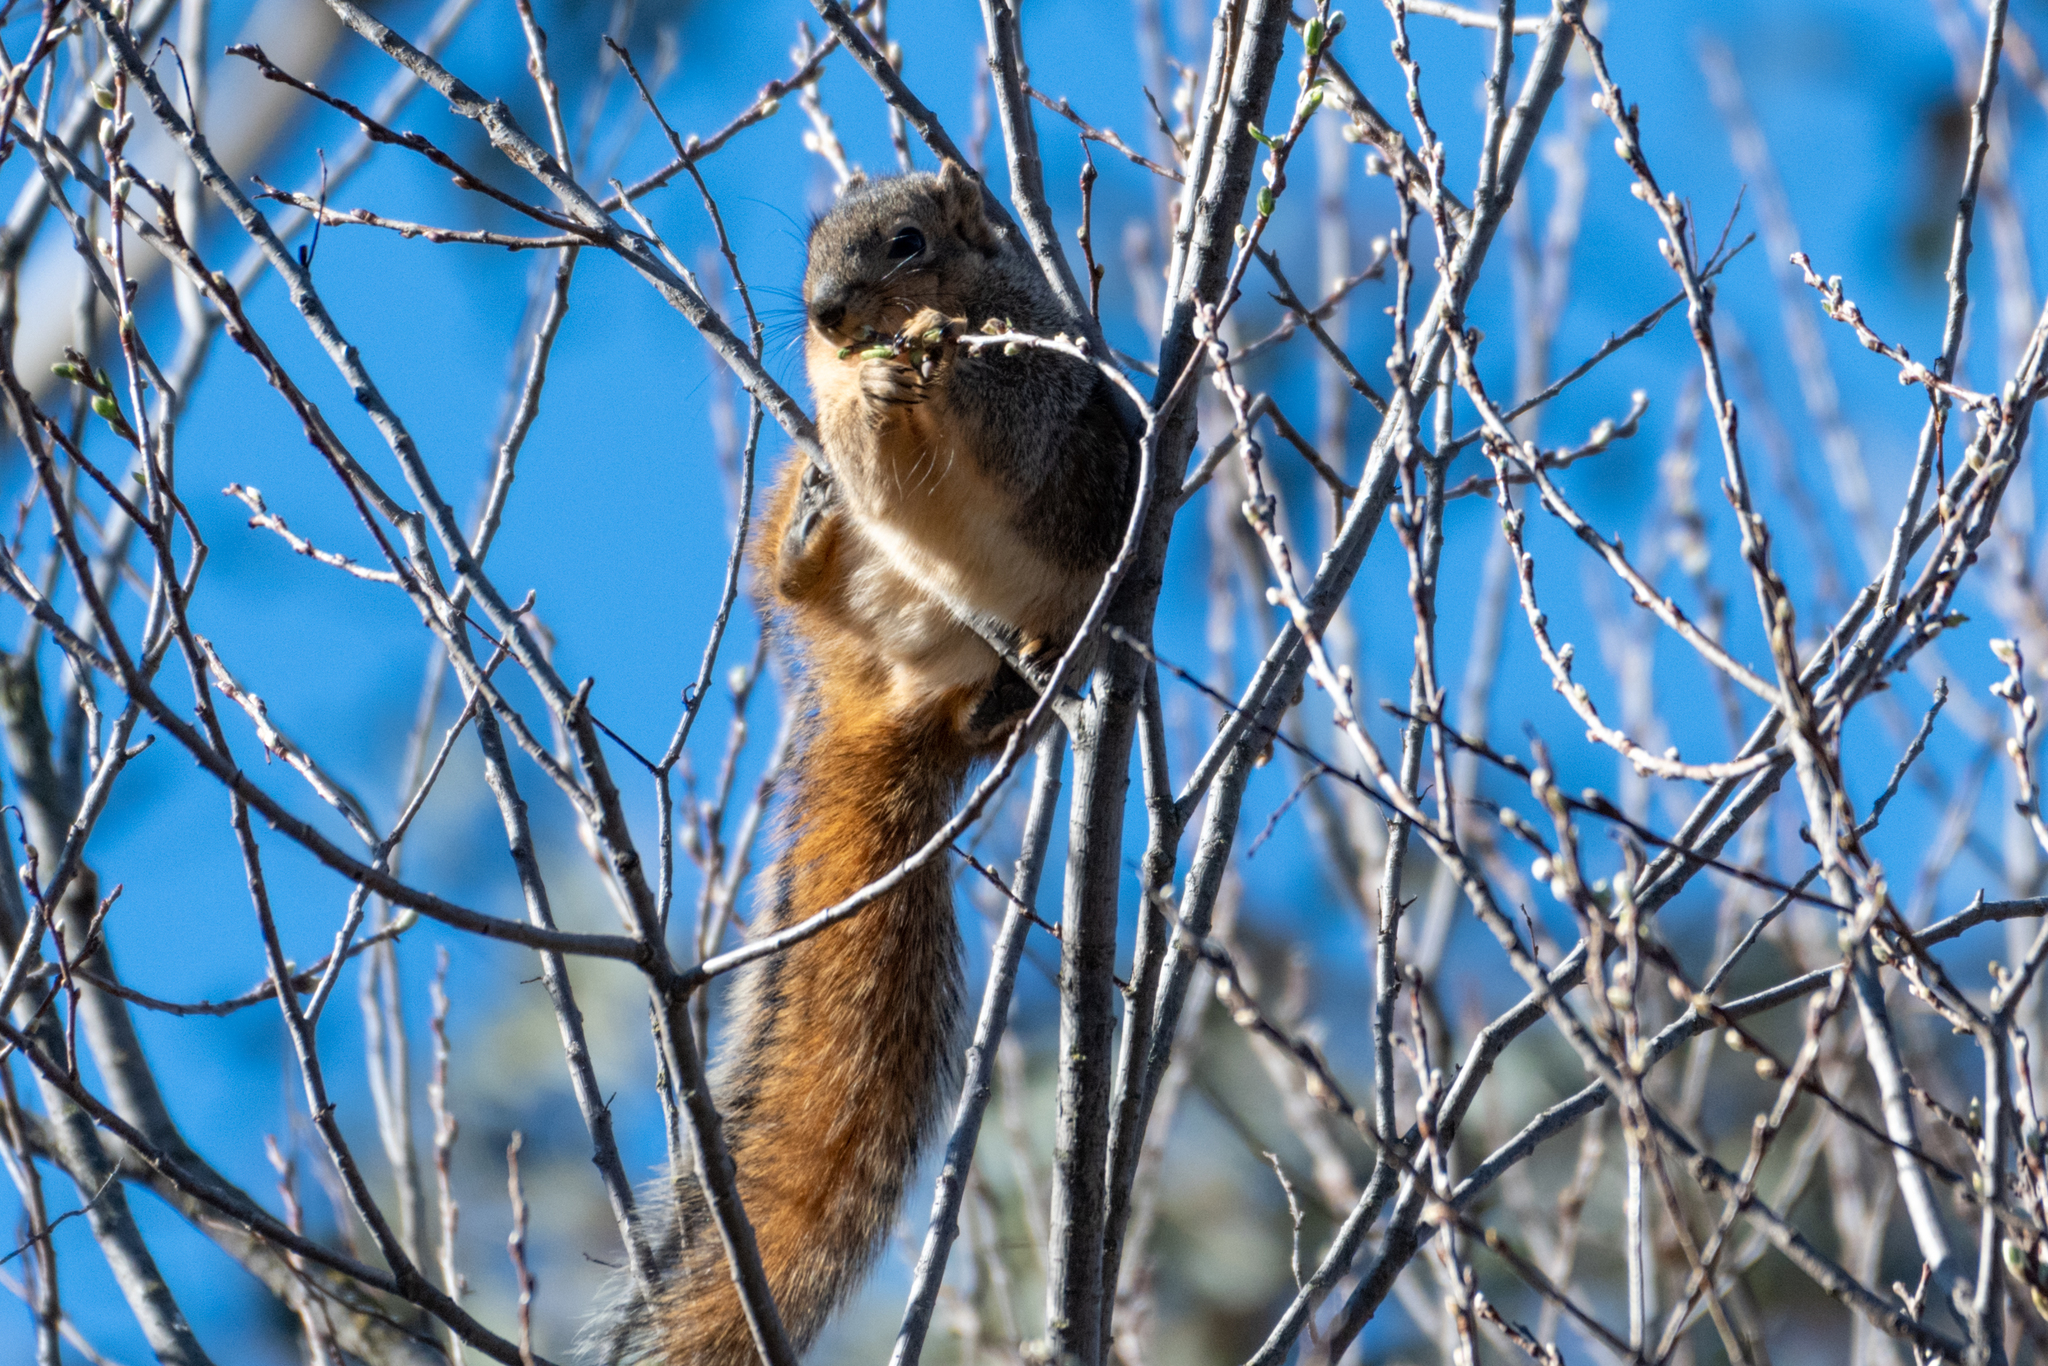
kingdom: Animalia
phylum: Chordata
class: Mammalia
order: Rodentia
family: Sciuridae
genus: Sciurus
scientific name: Sciurus niger
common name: Fox squirrel
